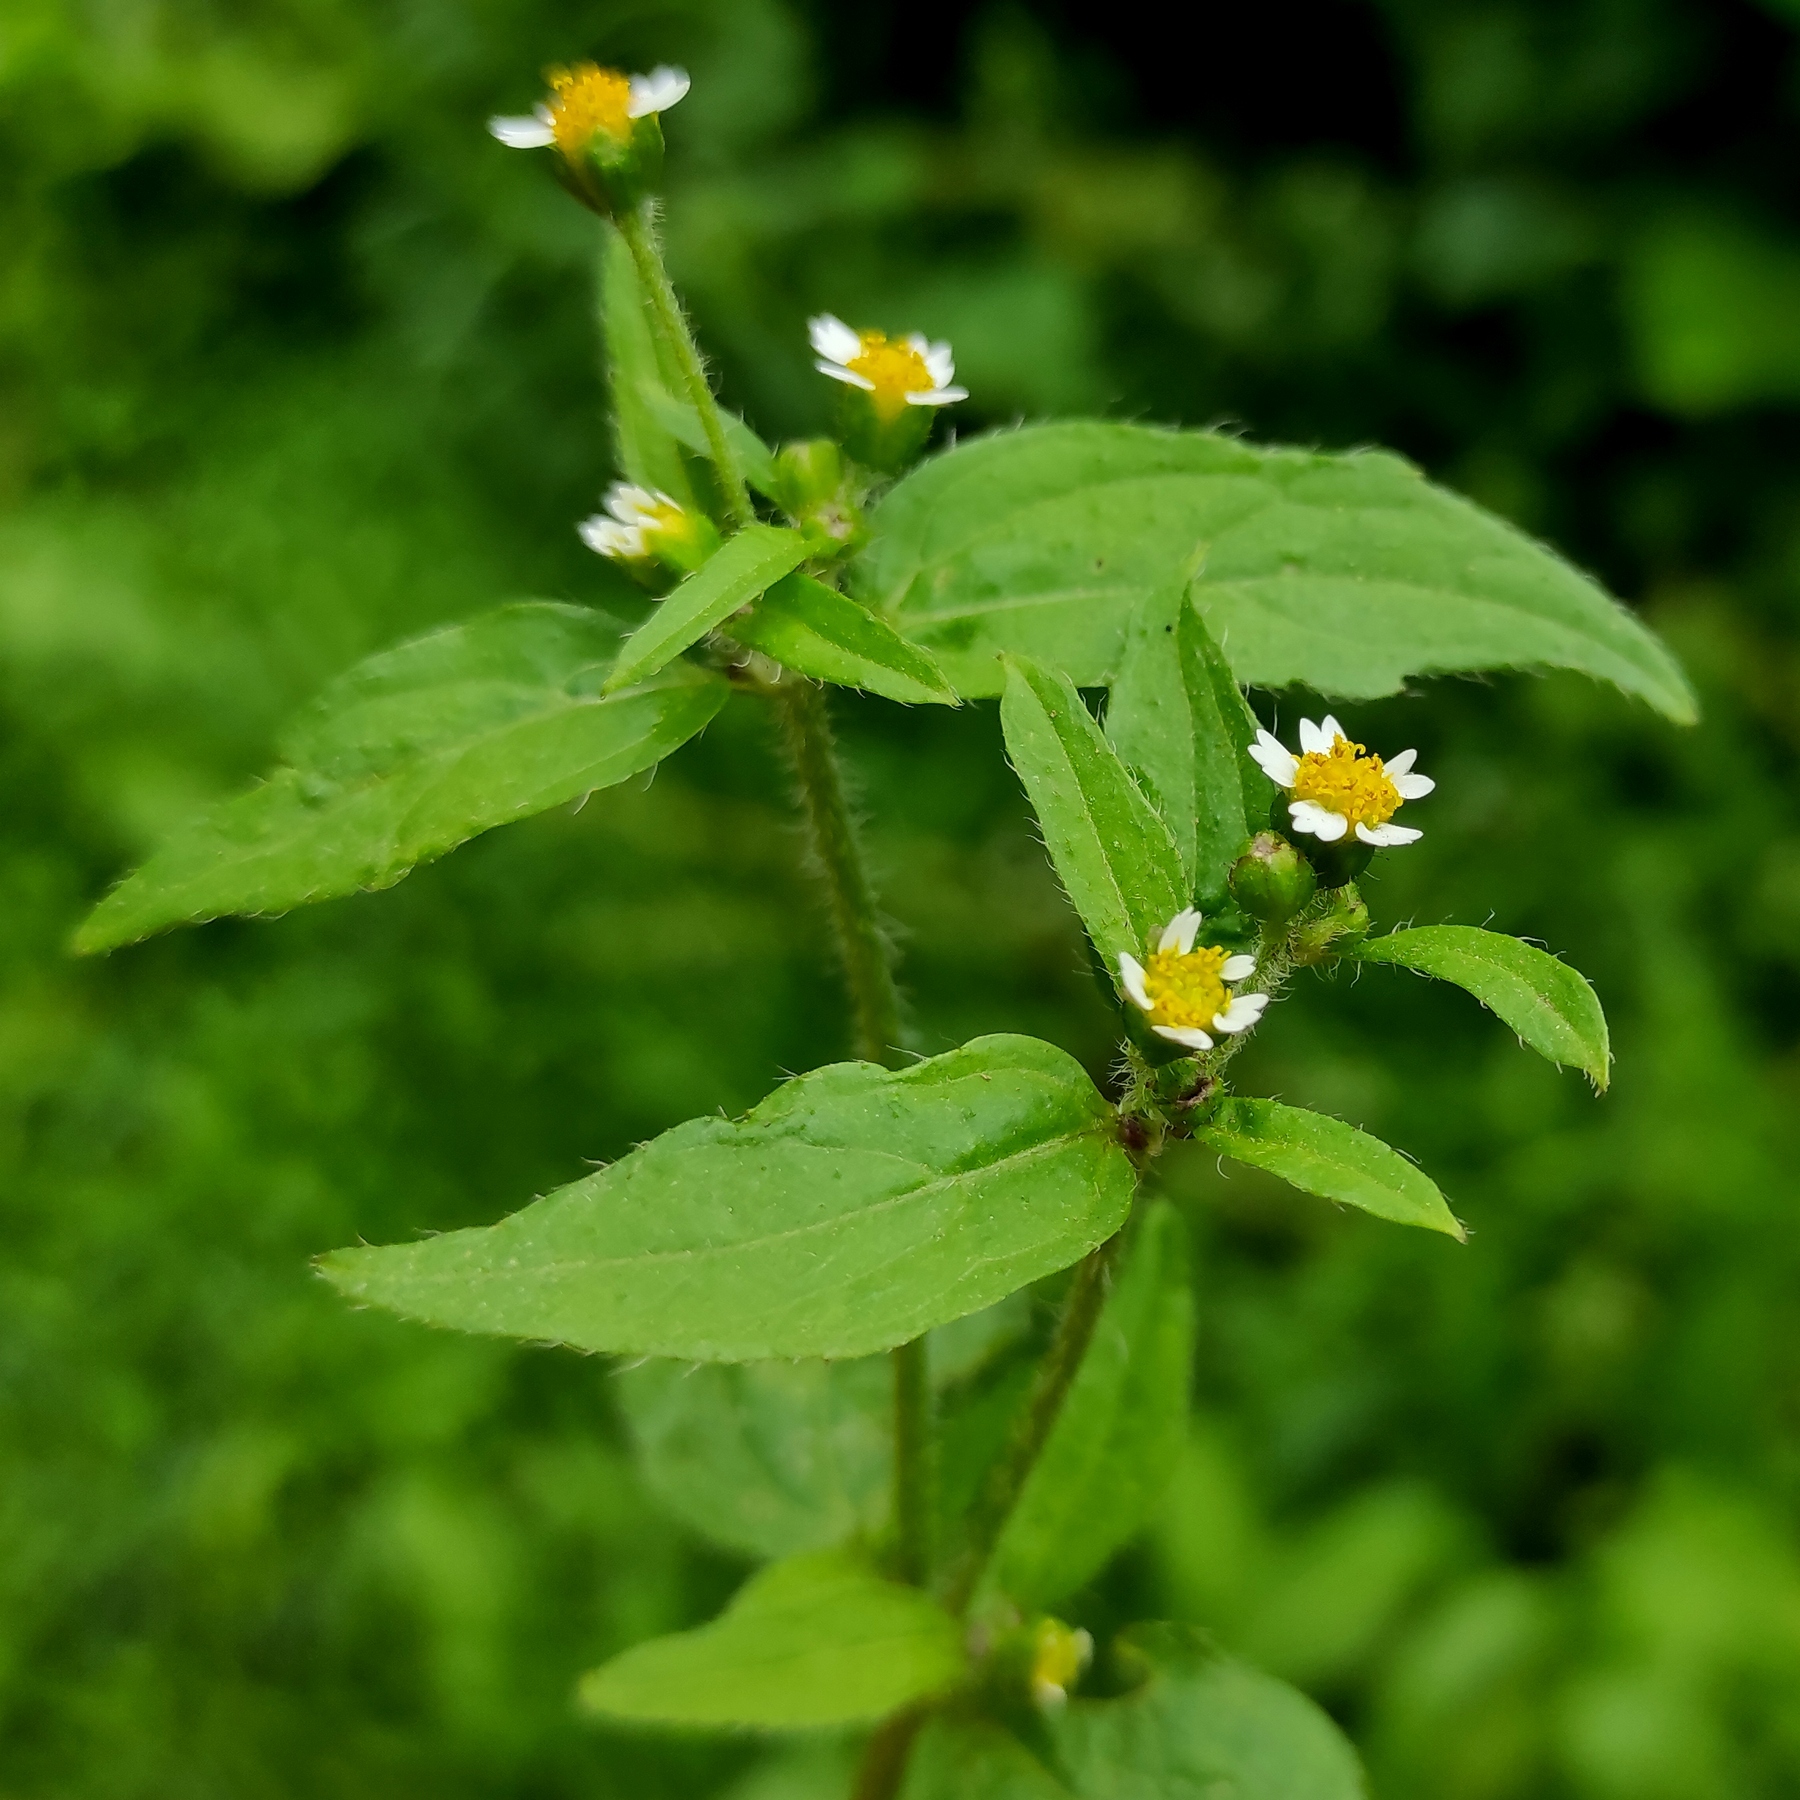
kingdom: Plantae
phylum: Tracheophyta
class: Magnoliopsida
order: Asterales
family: Asteraceae
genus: Galinsoga
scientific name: Galinsoga parviflora
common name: Gallant soldier
